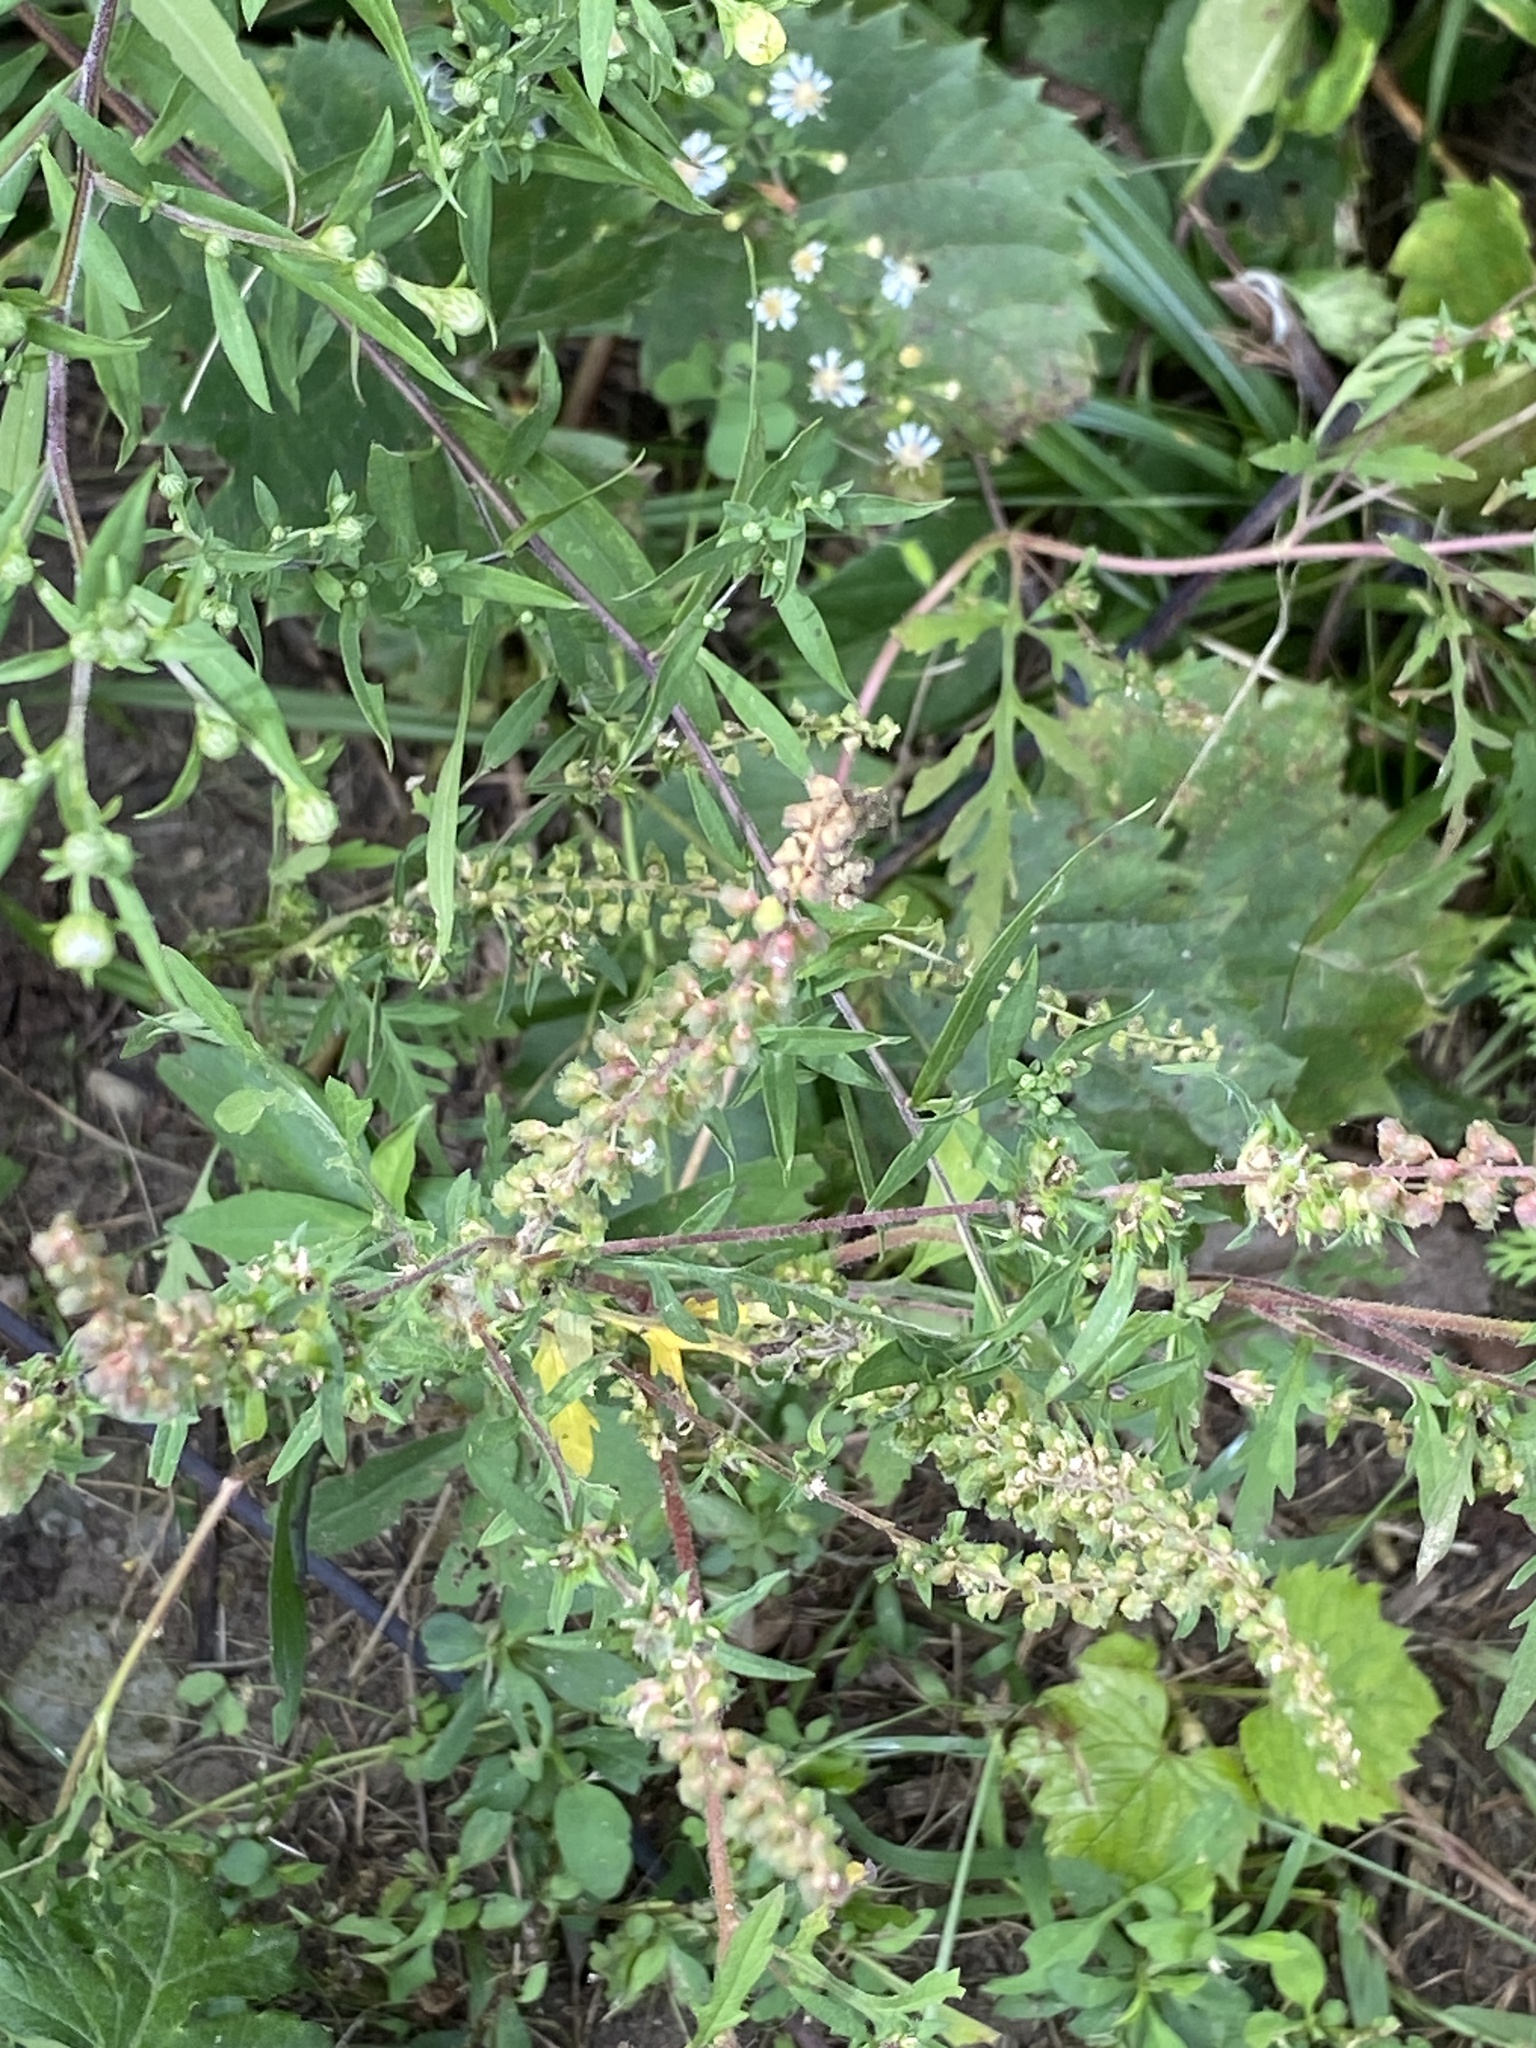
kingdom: Plantae
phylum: Tracheophyta
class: Magnoliopsida
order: Asterales
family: Asteraceae
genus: Ambrosia
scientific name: Ambrosia artemisiifolia
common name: Annual ragweed
